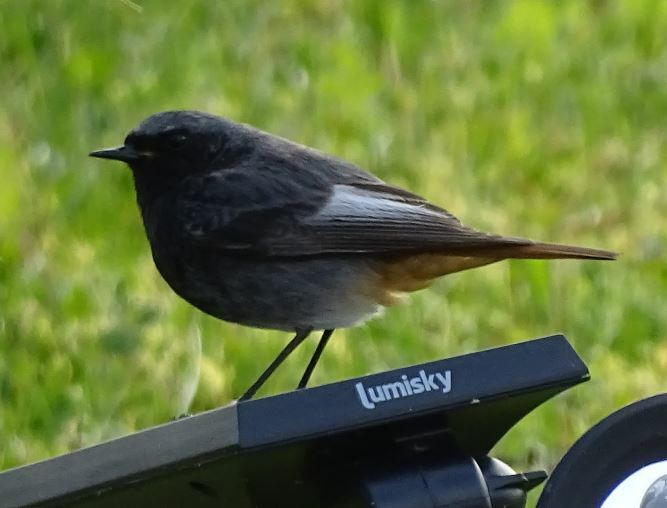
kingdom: Animalia
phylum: Chordata
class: Aves
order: Passeriformes
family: Muscicapidae
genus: Phoenicurus
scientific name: Phoenicurus ochruros
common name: Black redstart
